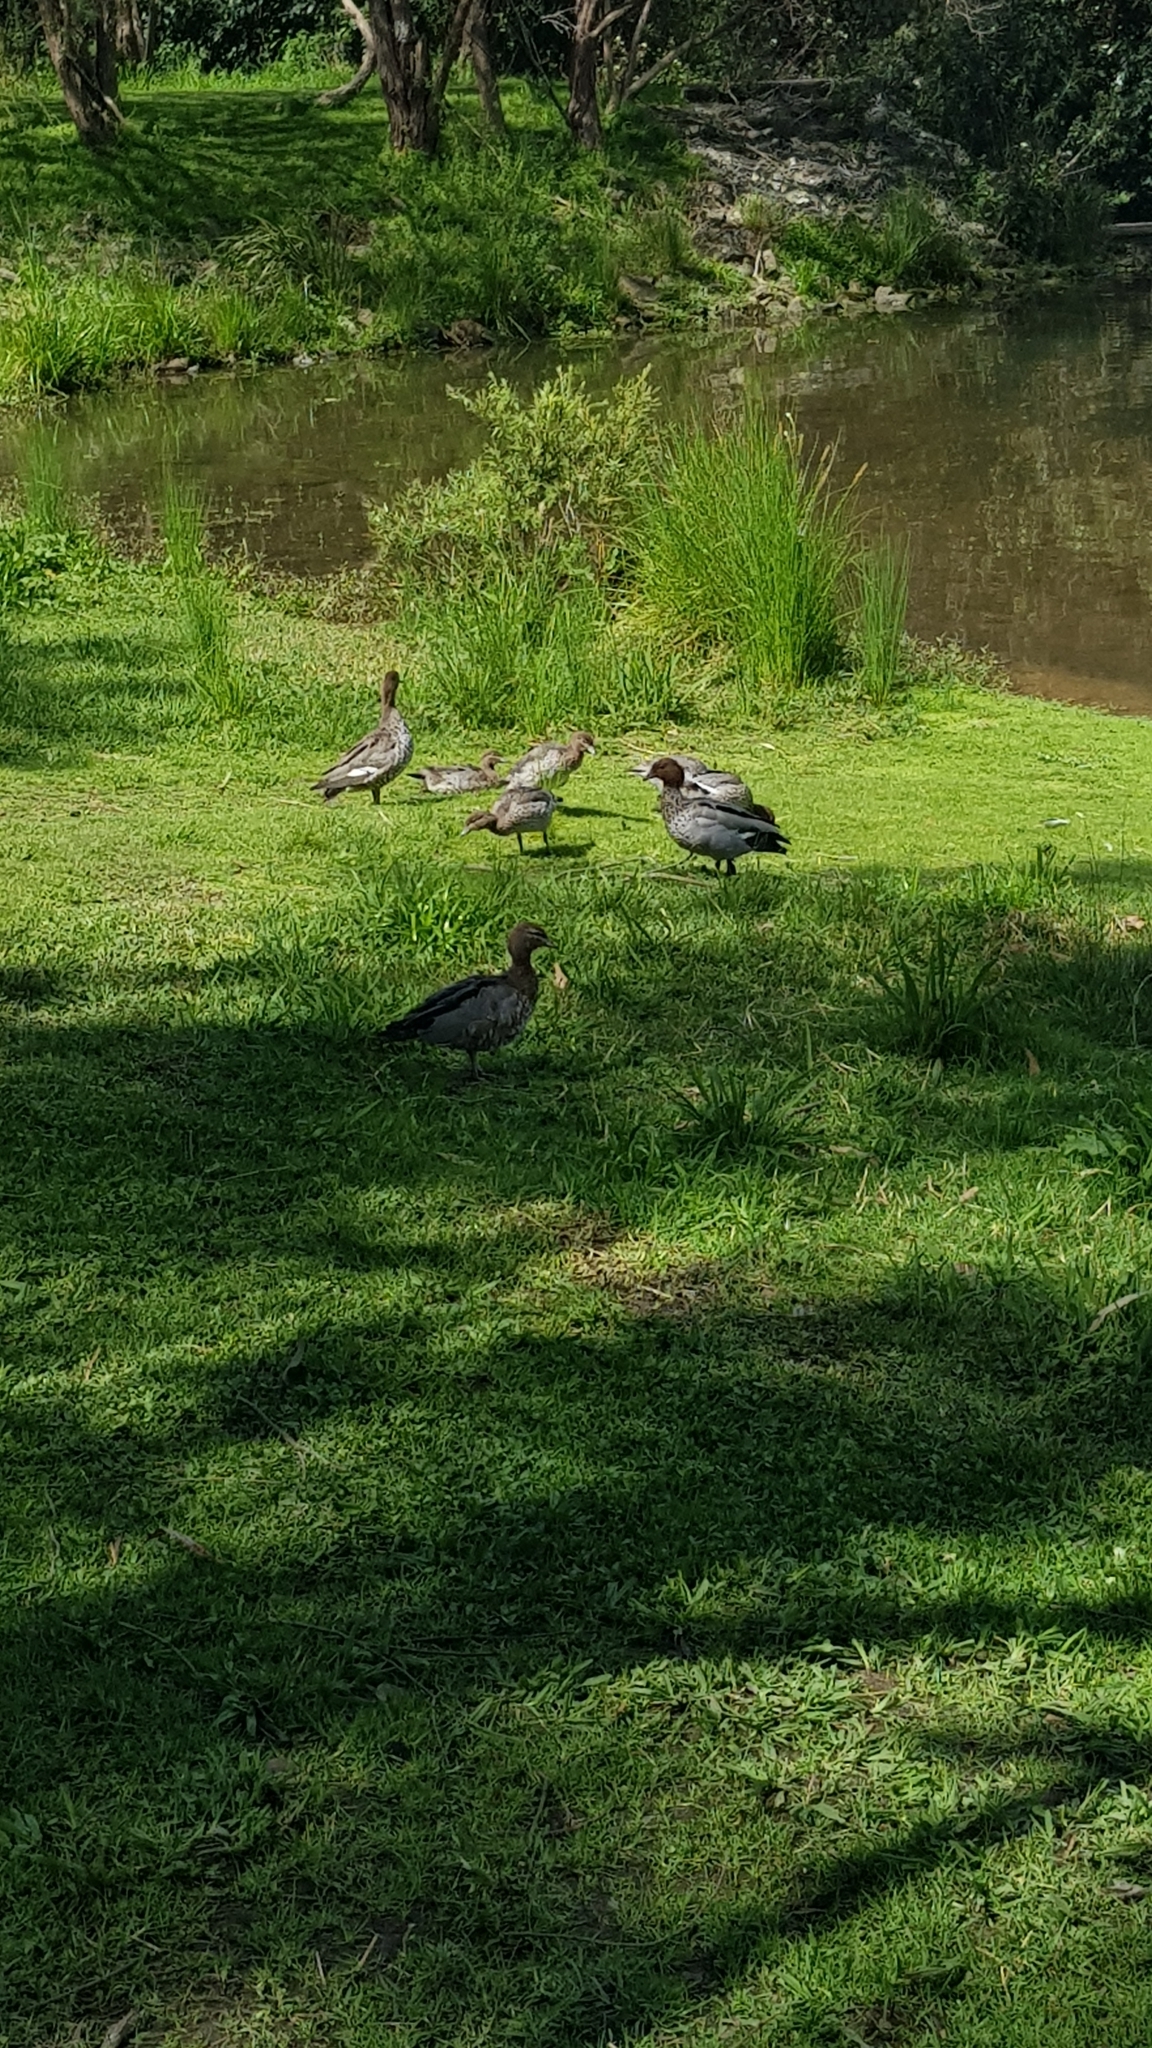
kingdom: Animalia
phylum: Chordata
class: Aves
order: Anseriformes
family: Anatidae
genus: Chenonetta
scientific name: Chenonetta jubata
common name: Maned duck
